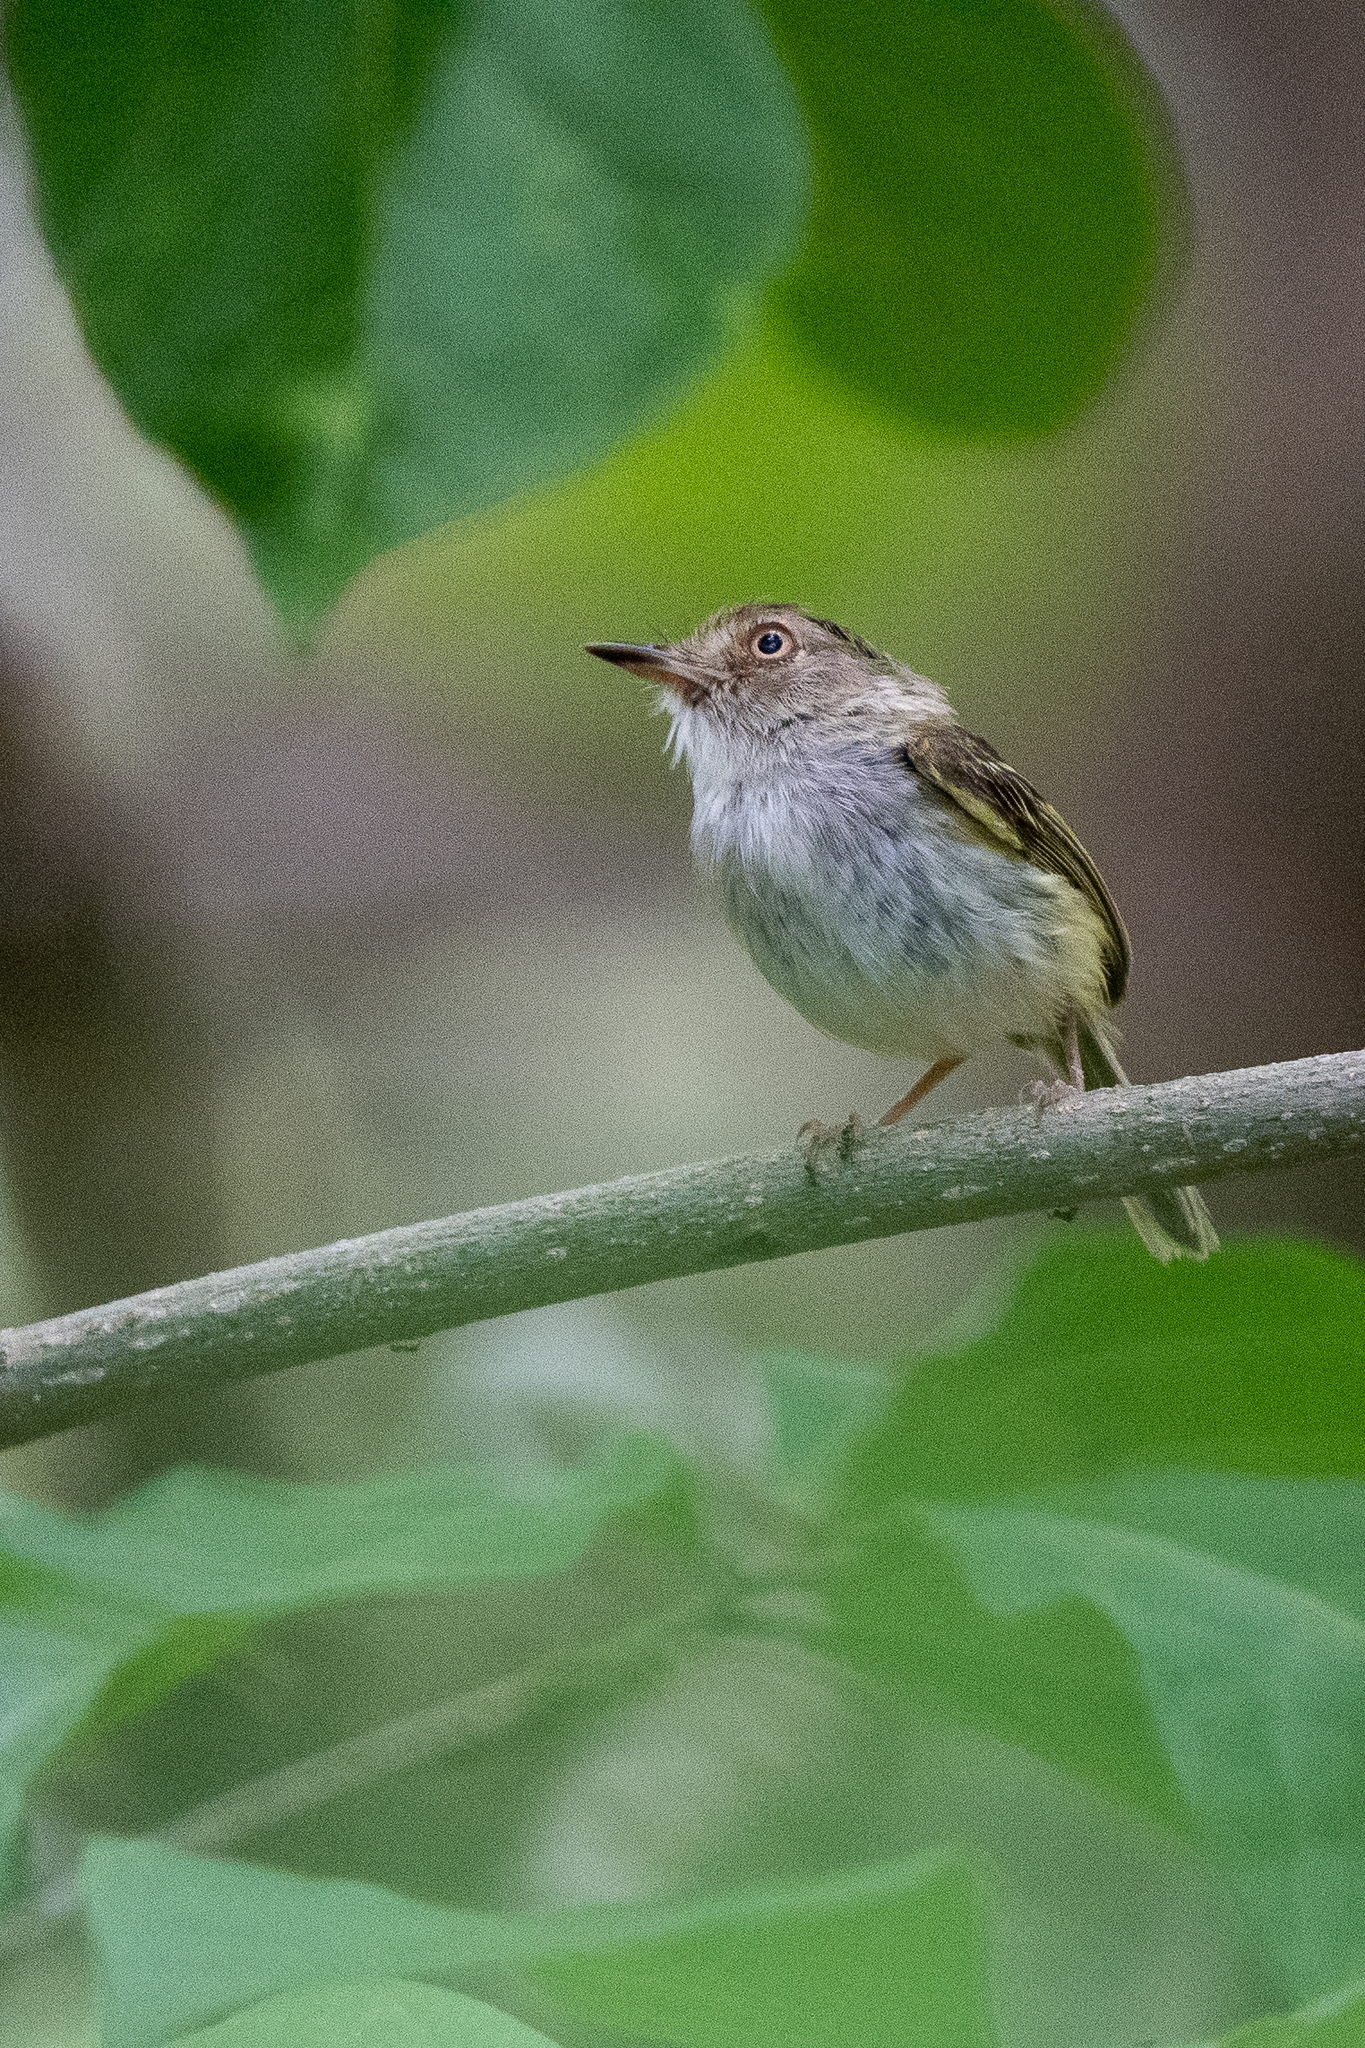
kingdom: Animalia
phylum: Chordata
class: Aves
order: Passeriformes
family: Tyrannidae
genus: Atalotriccus
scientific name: Atalotriccus pilaris
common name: Pale-eyed pygmy-tyrant
